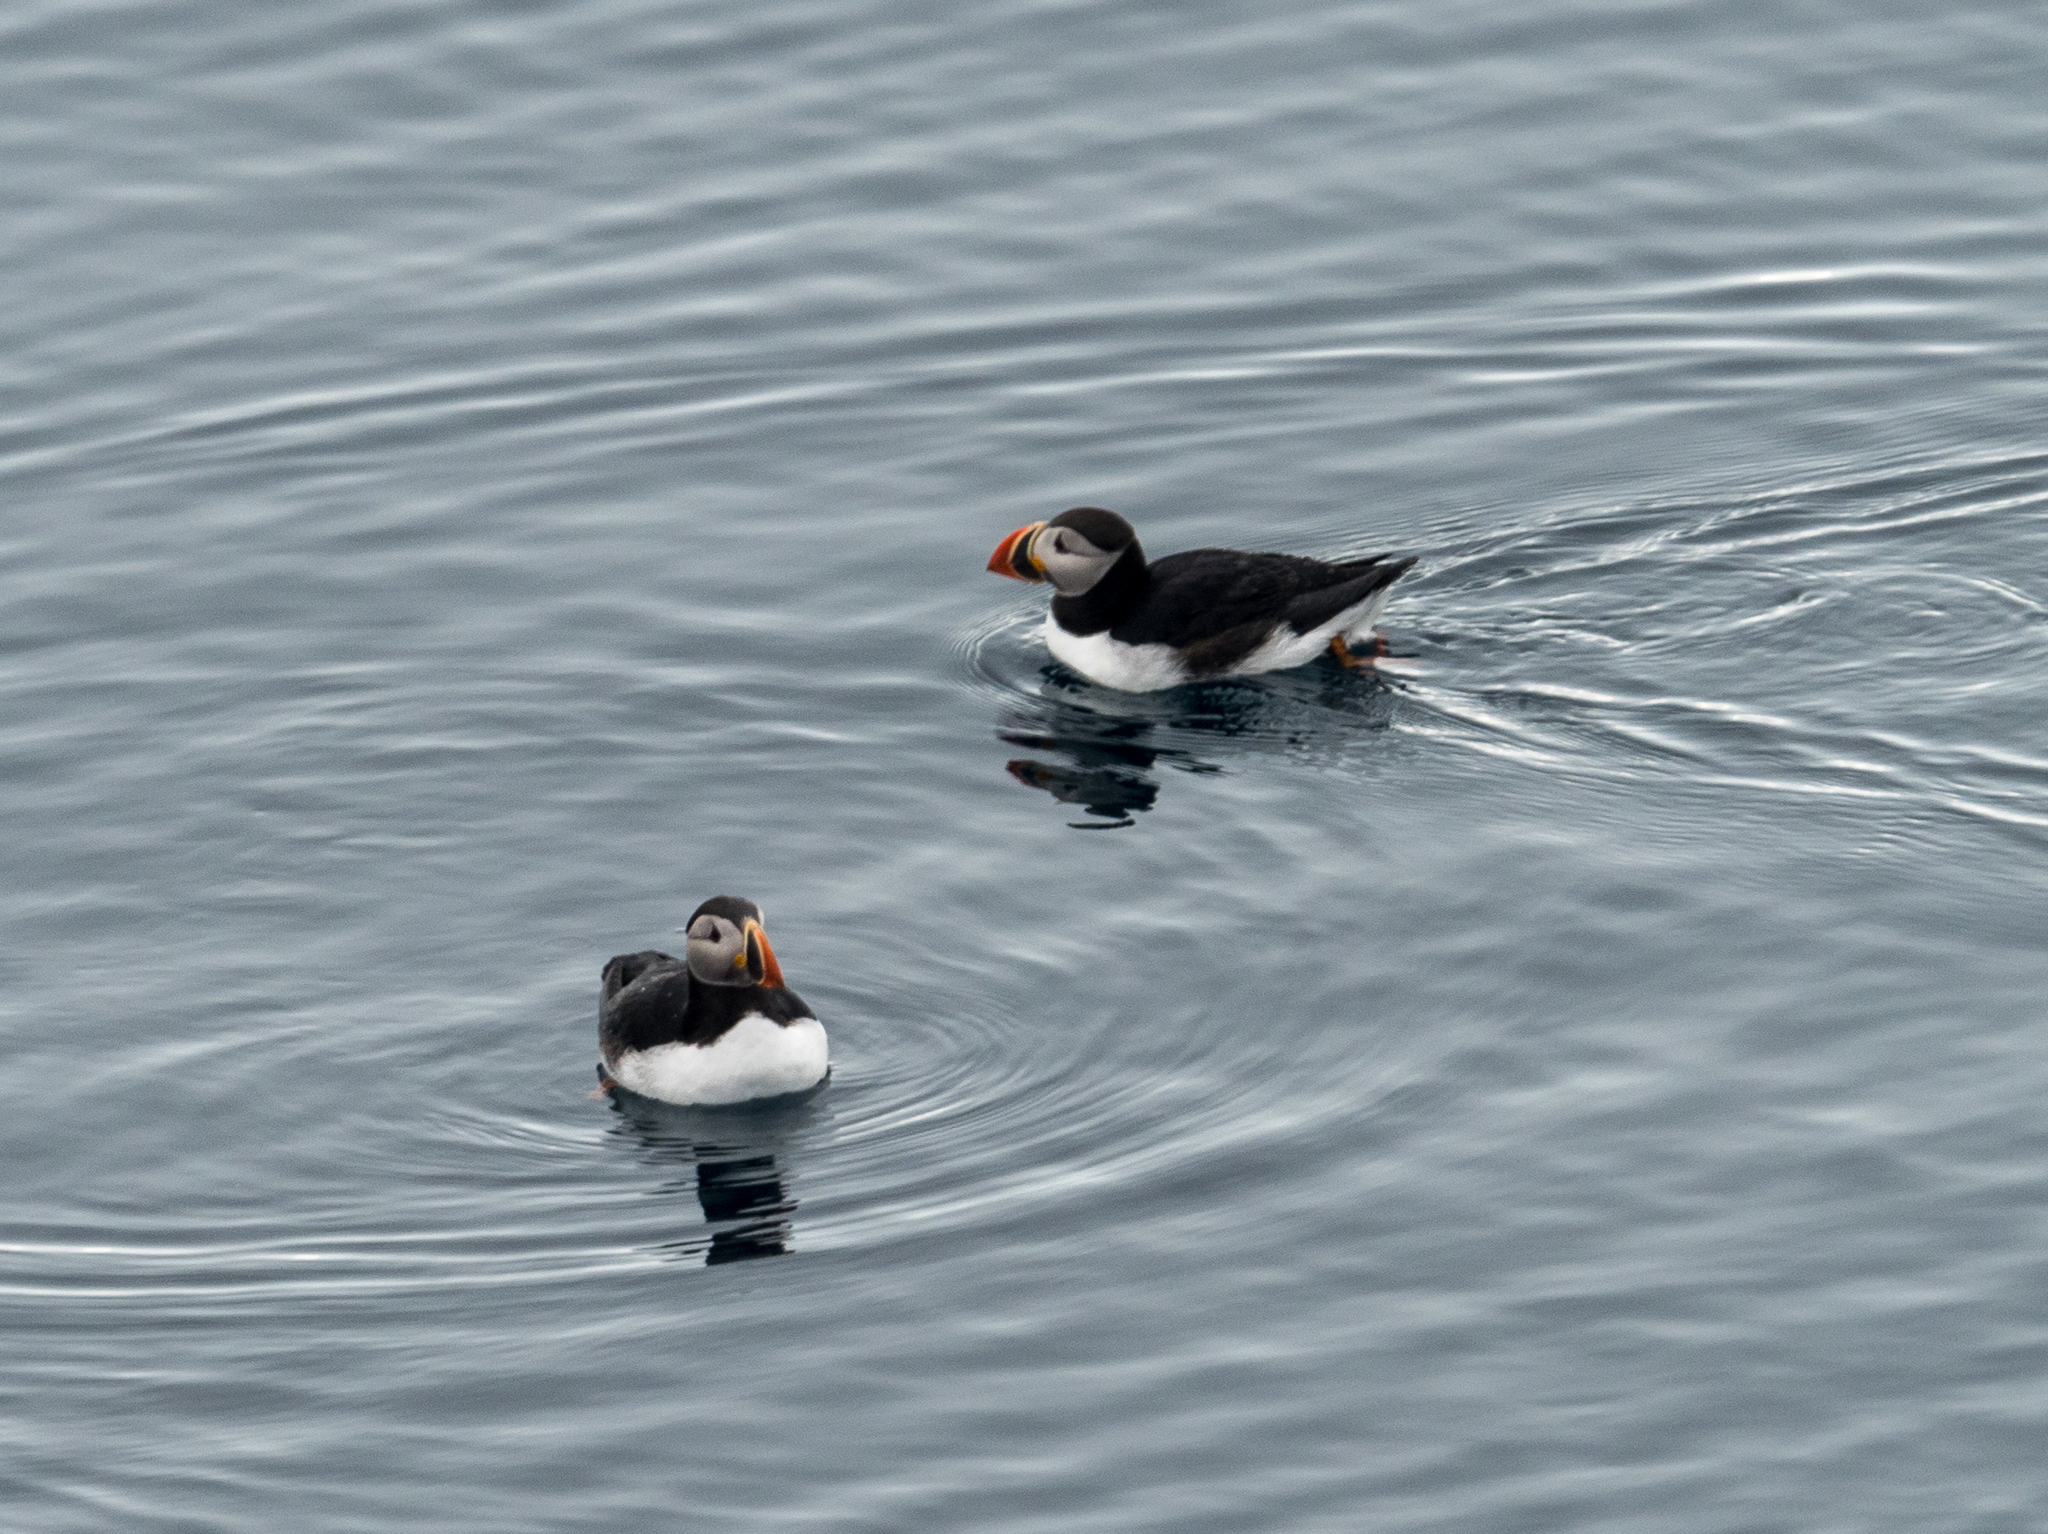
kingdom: Animalia
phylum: Chordata
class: Aves
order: Charadriiformes
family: Alcidae
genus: Fratercula
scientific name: Fratercula arctica
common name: Atlantic puffin
